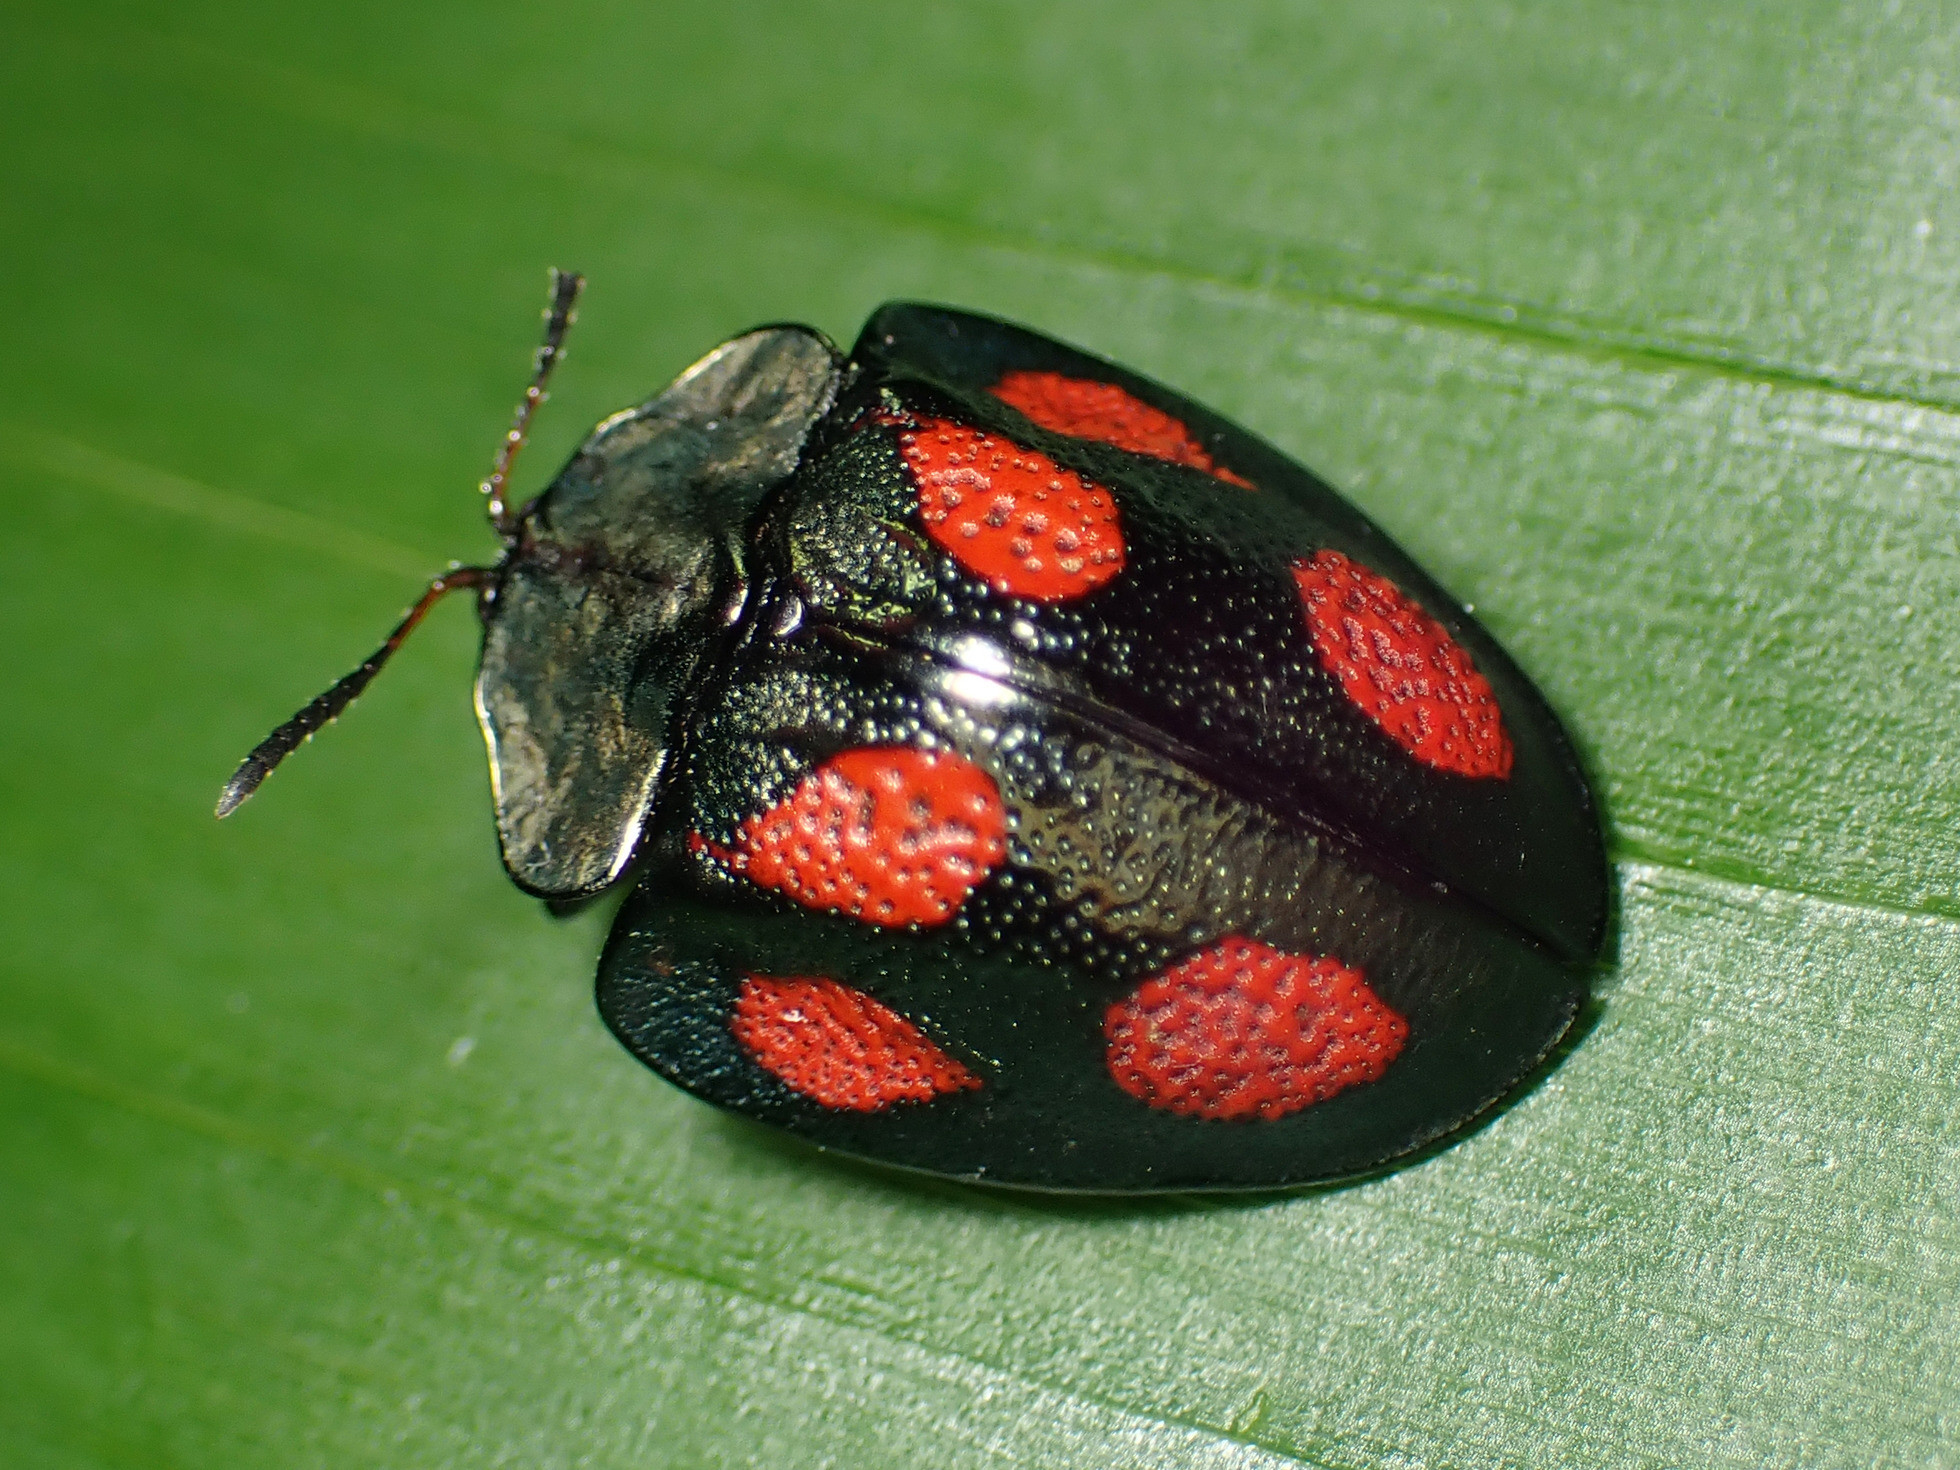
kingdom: Animalia
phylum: Arthropoda
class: Insecta
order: Coleoptera
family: Chrysomelidae
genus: Cyrtonota
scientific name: Cyrtonota tristigma
